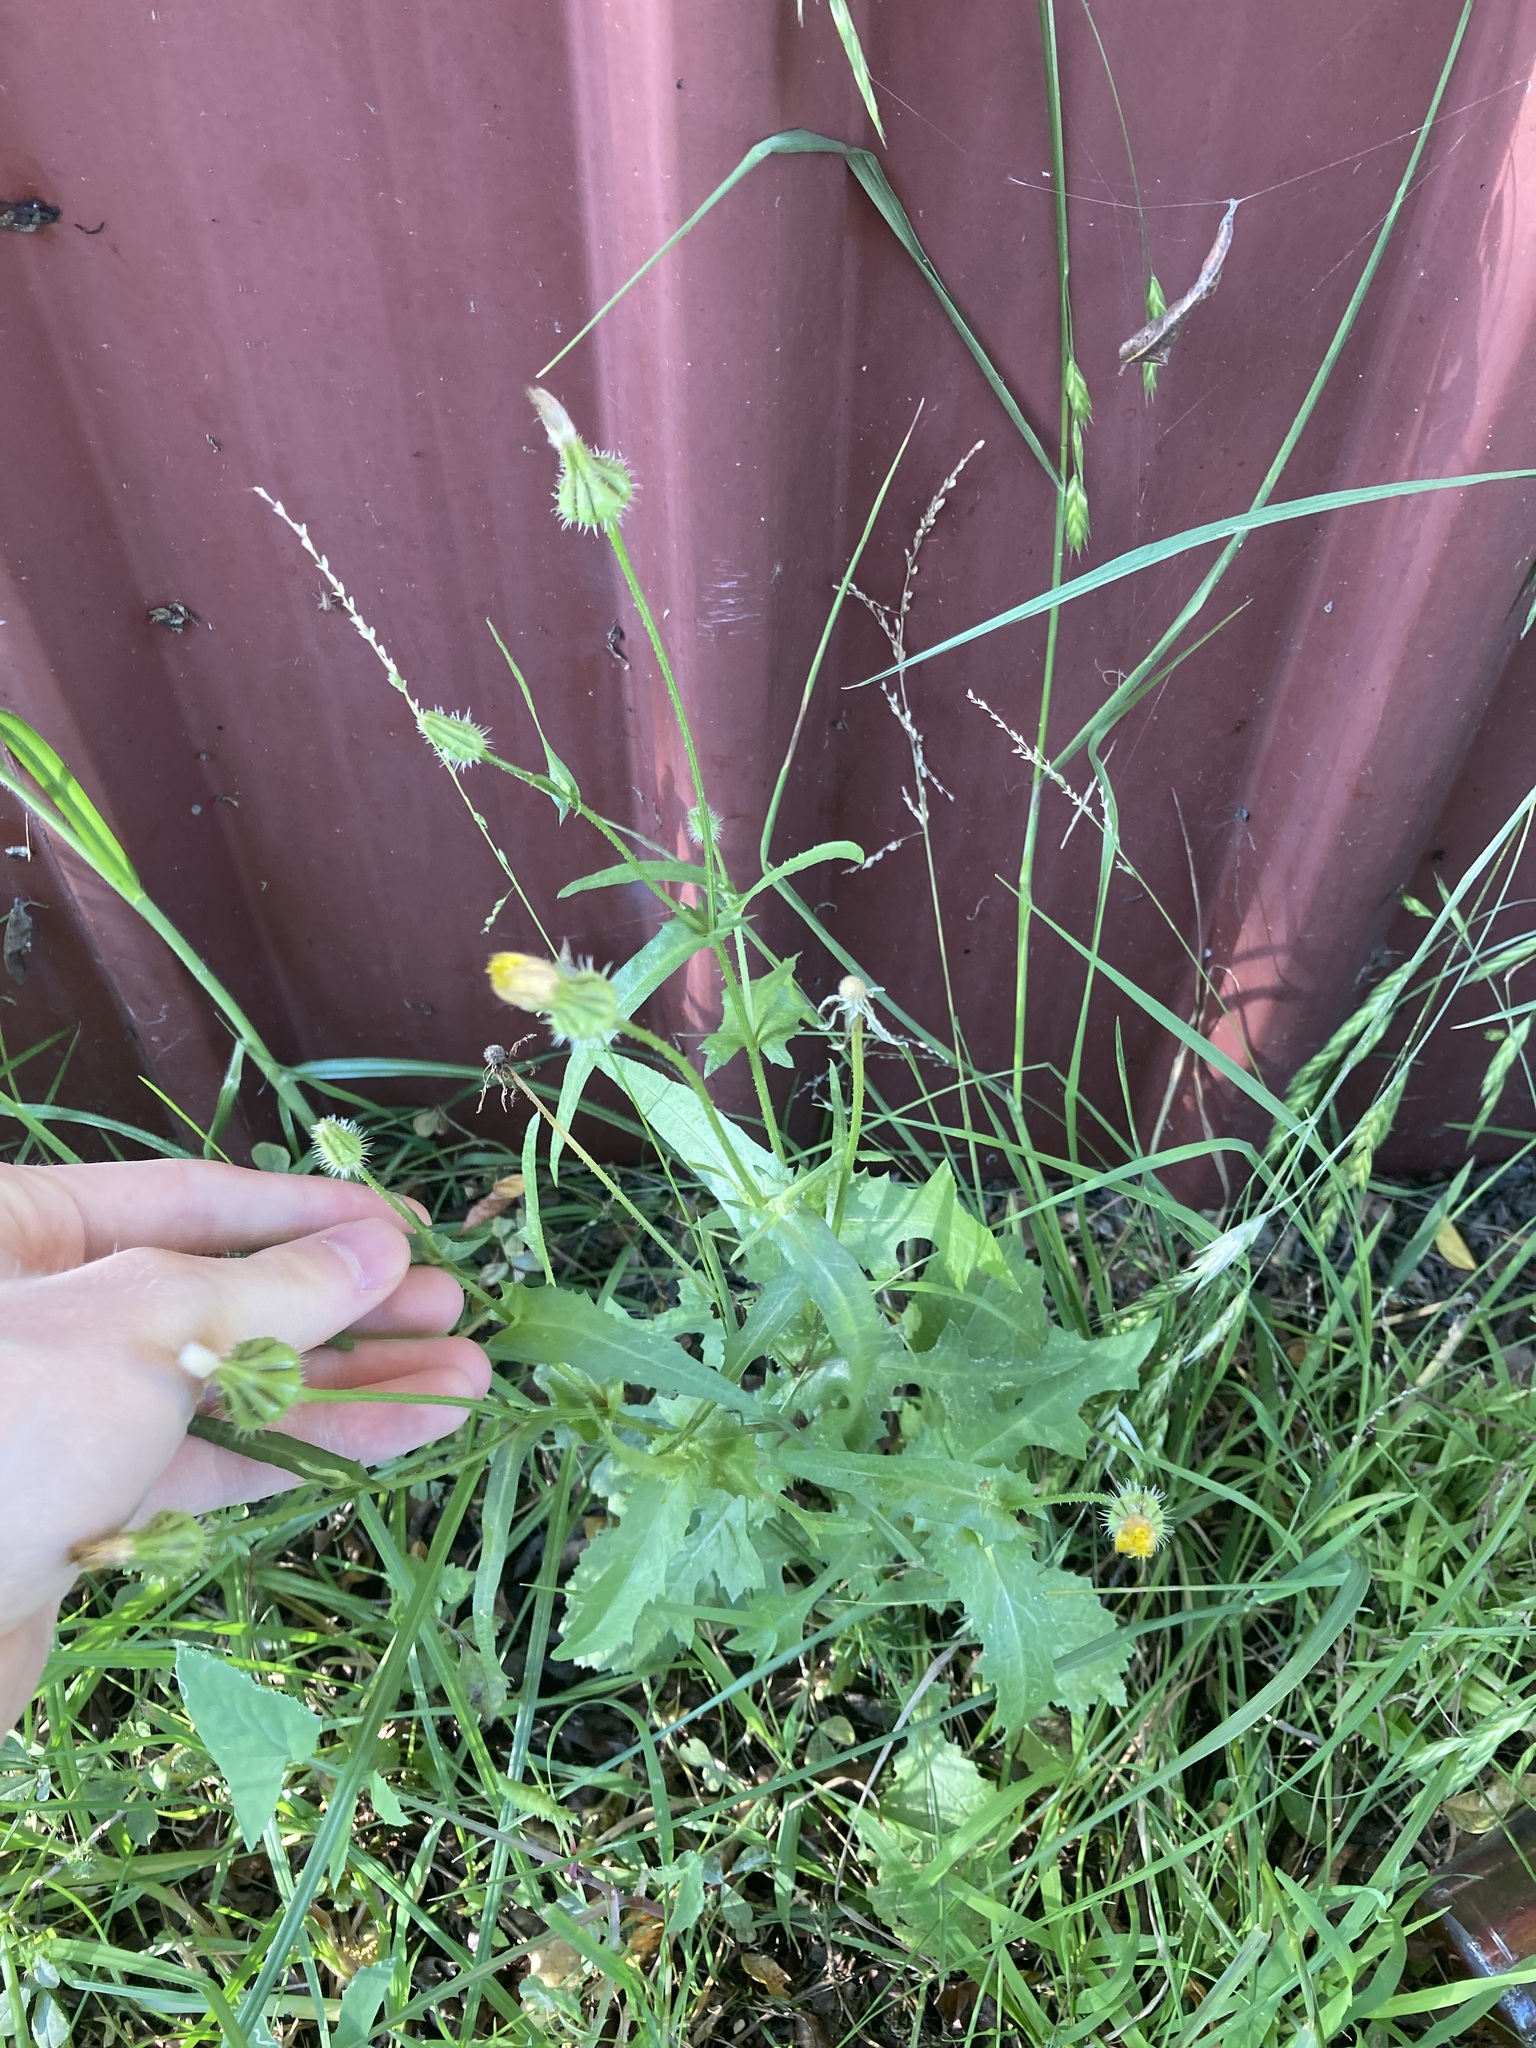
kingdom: Plantae
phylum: Tracheophyta
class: Magnoliopsida
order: Asterales
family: Asteraceae
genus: Urospermum
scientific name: Urospermum picroides
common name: False hawkbit
